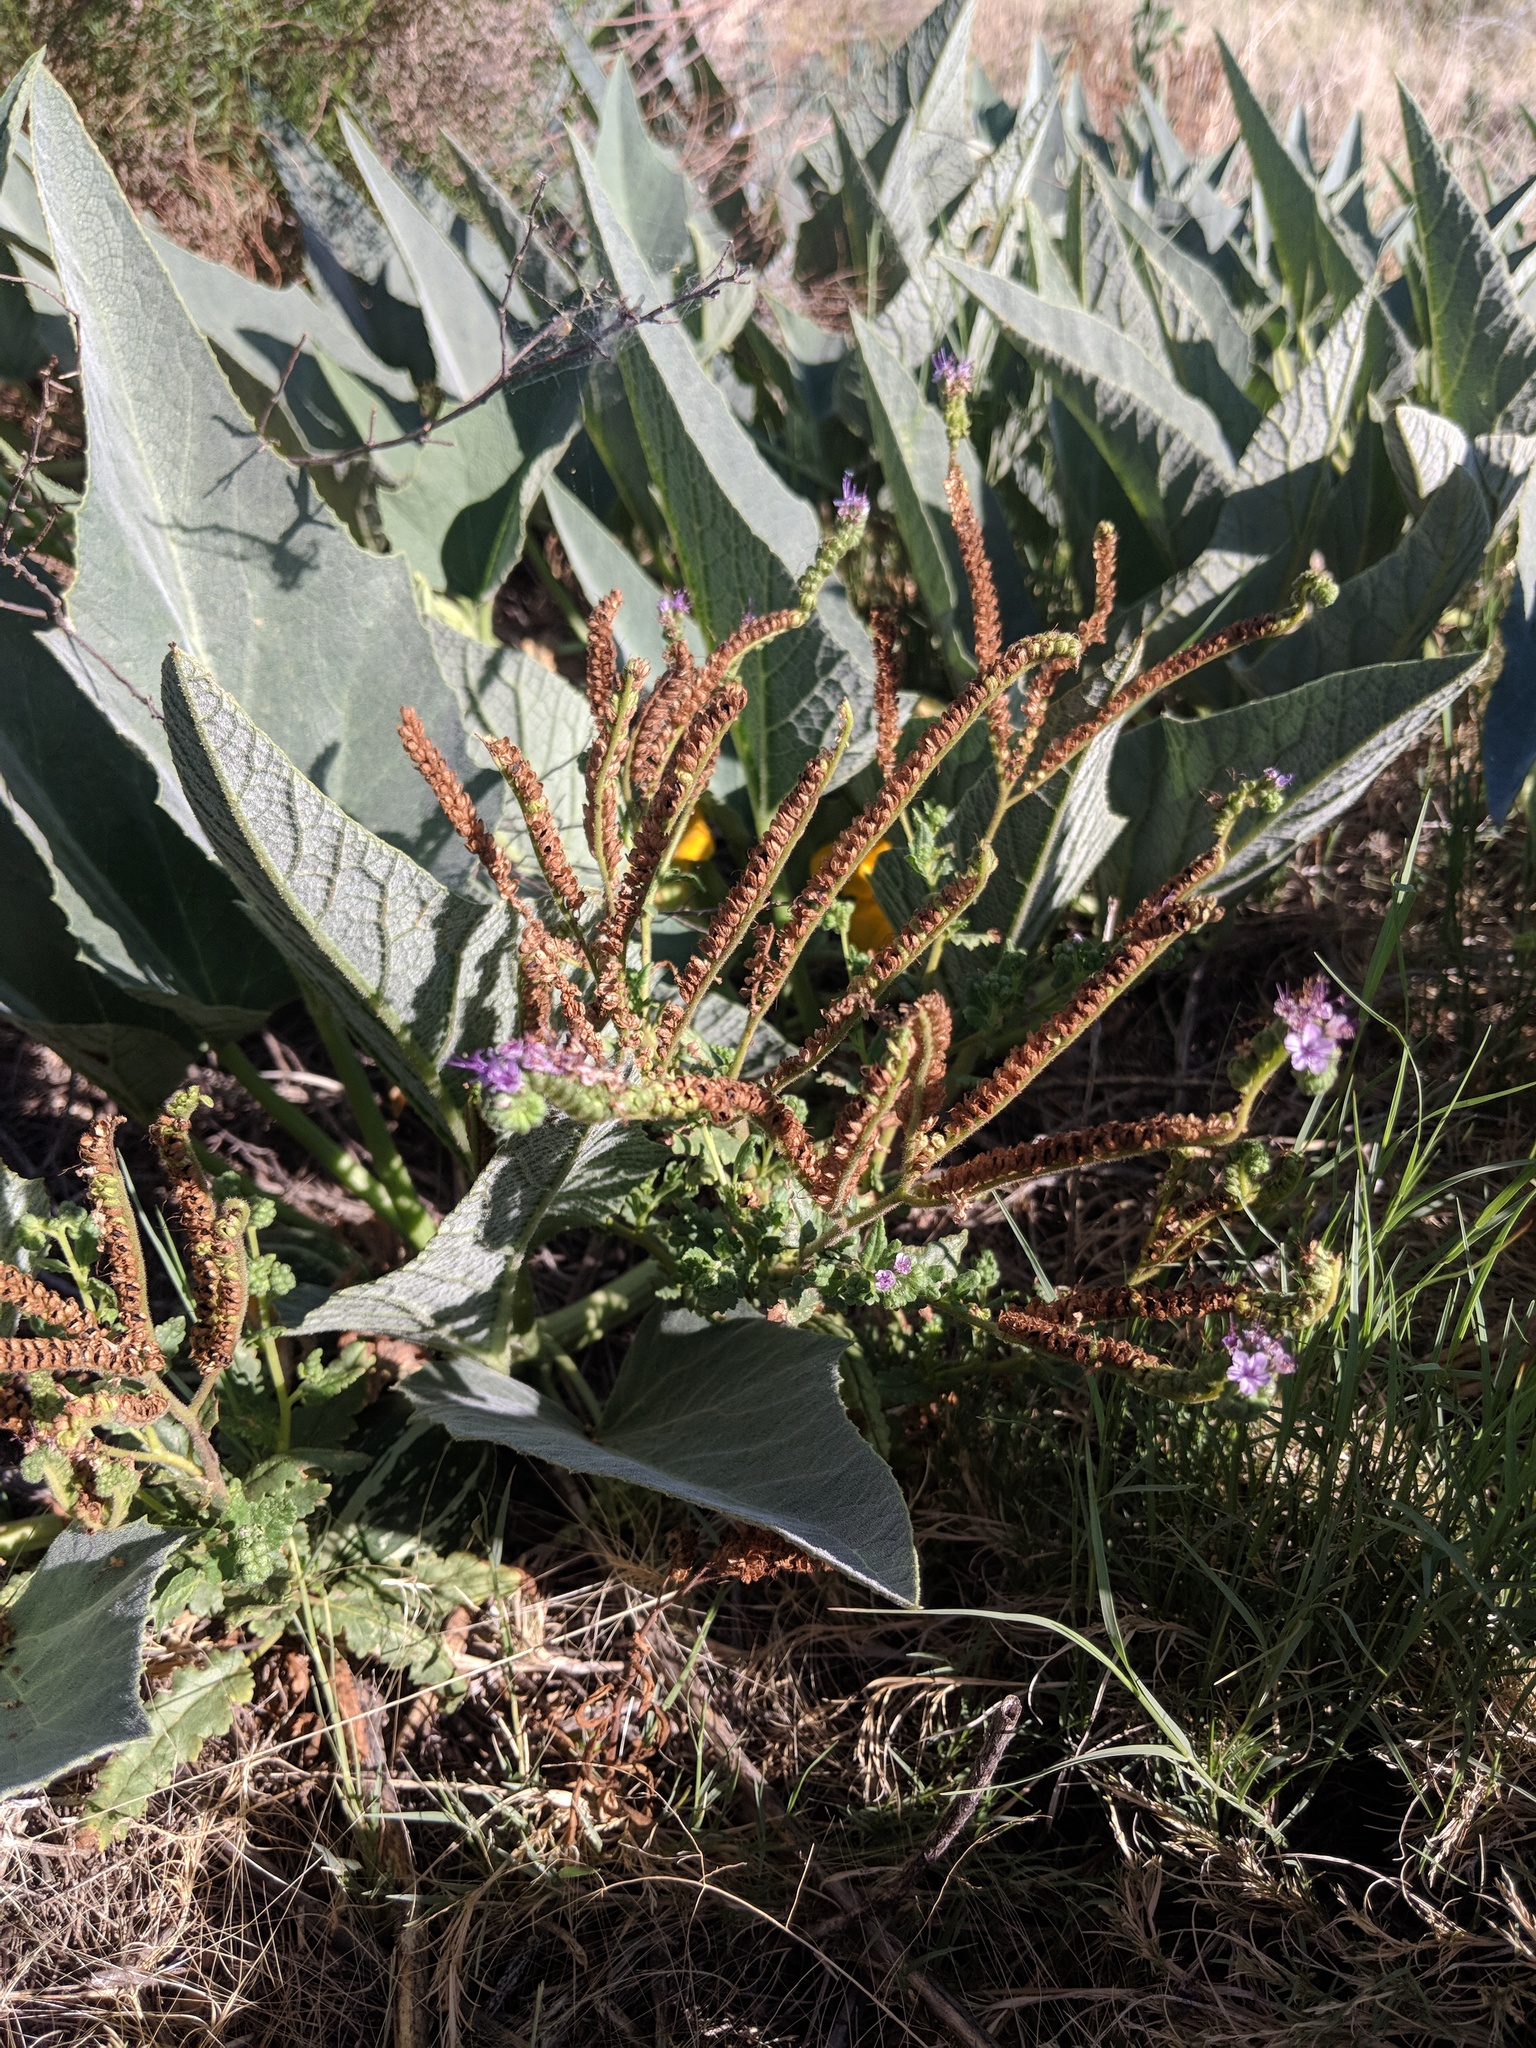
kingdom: Plantae
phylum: Tracheophyta
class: Magnoliopsida
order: Boraginales
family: Hydrophyllaceae
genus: Phacelia
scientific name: Phacelia integrifolia
